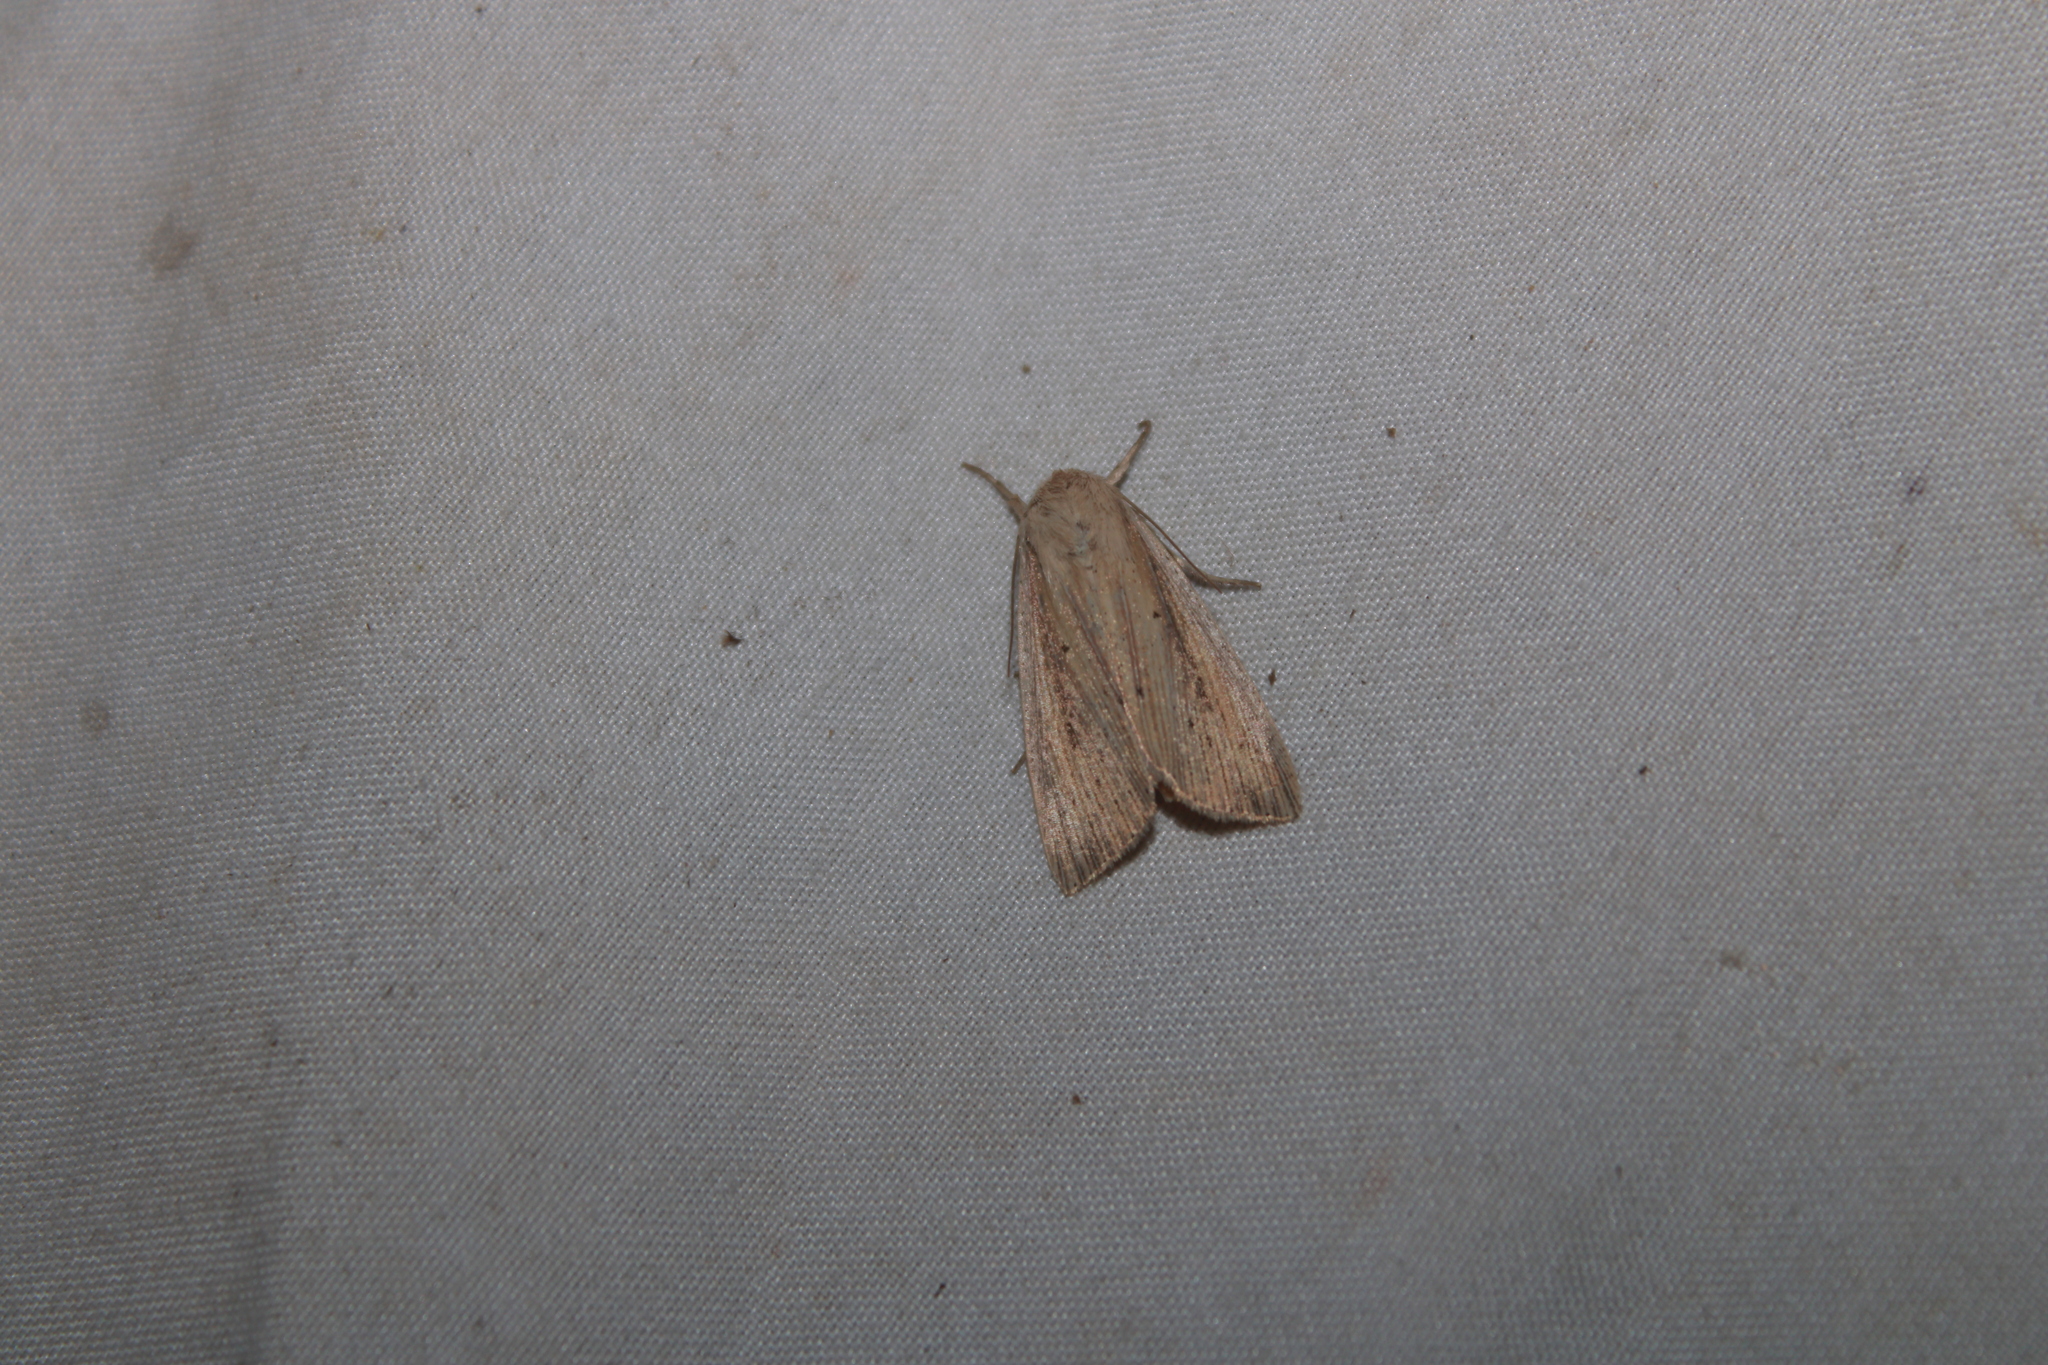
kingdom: Animalia
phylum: Arthropoda
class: Insecta
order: Lepidoptera
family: Noctuidae
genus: Leucania
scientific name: Leucania linita
